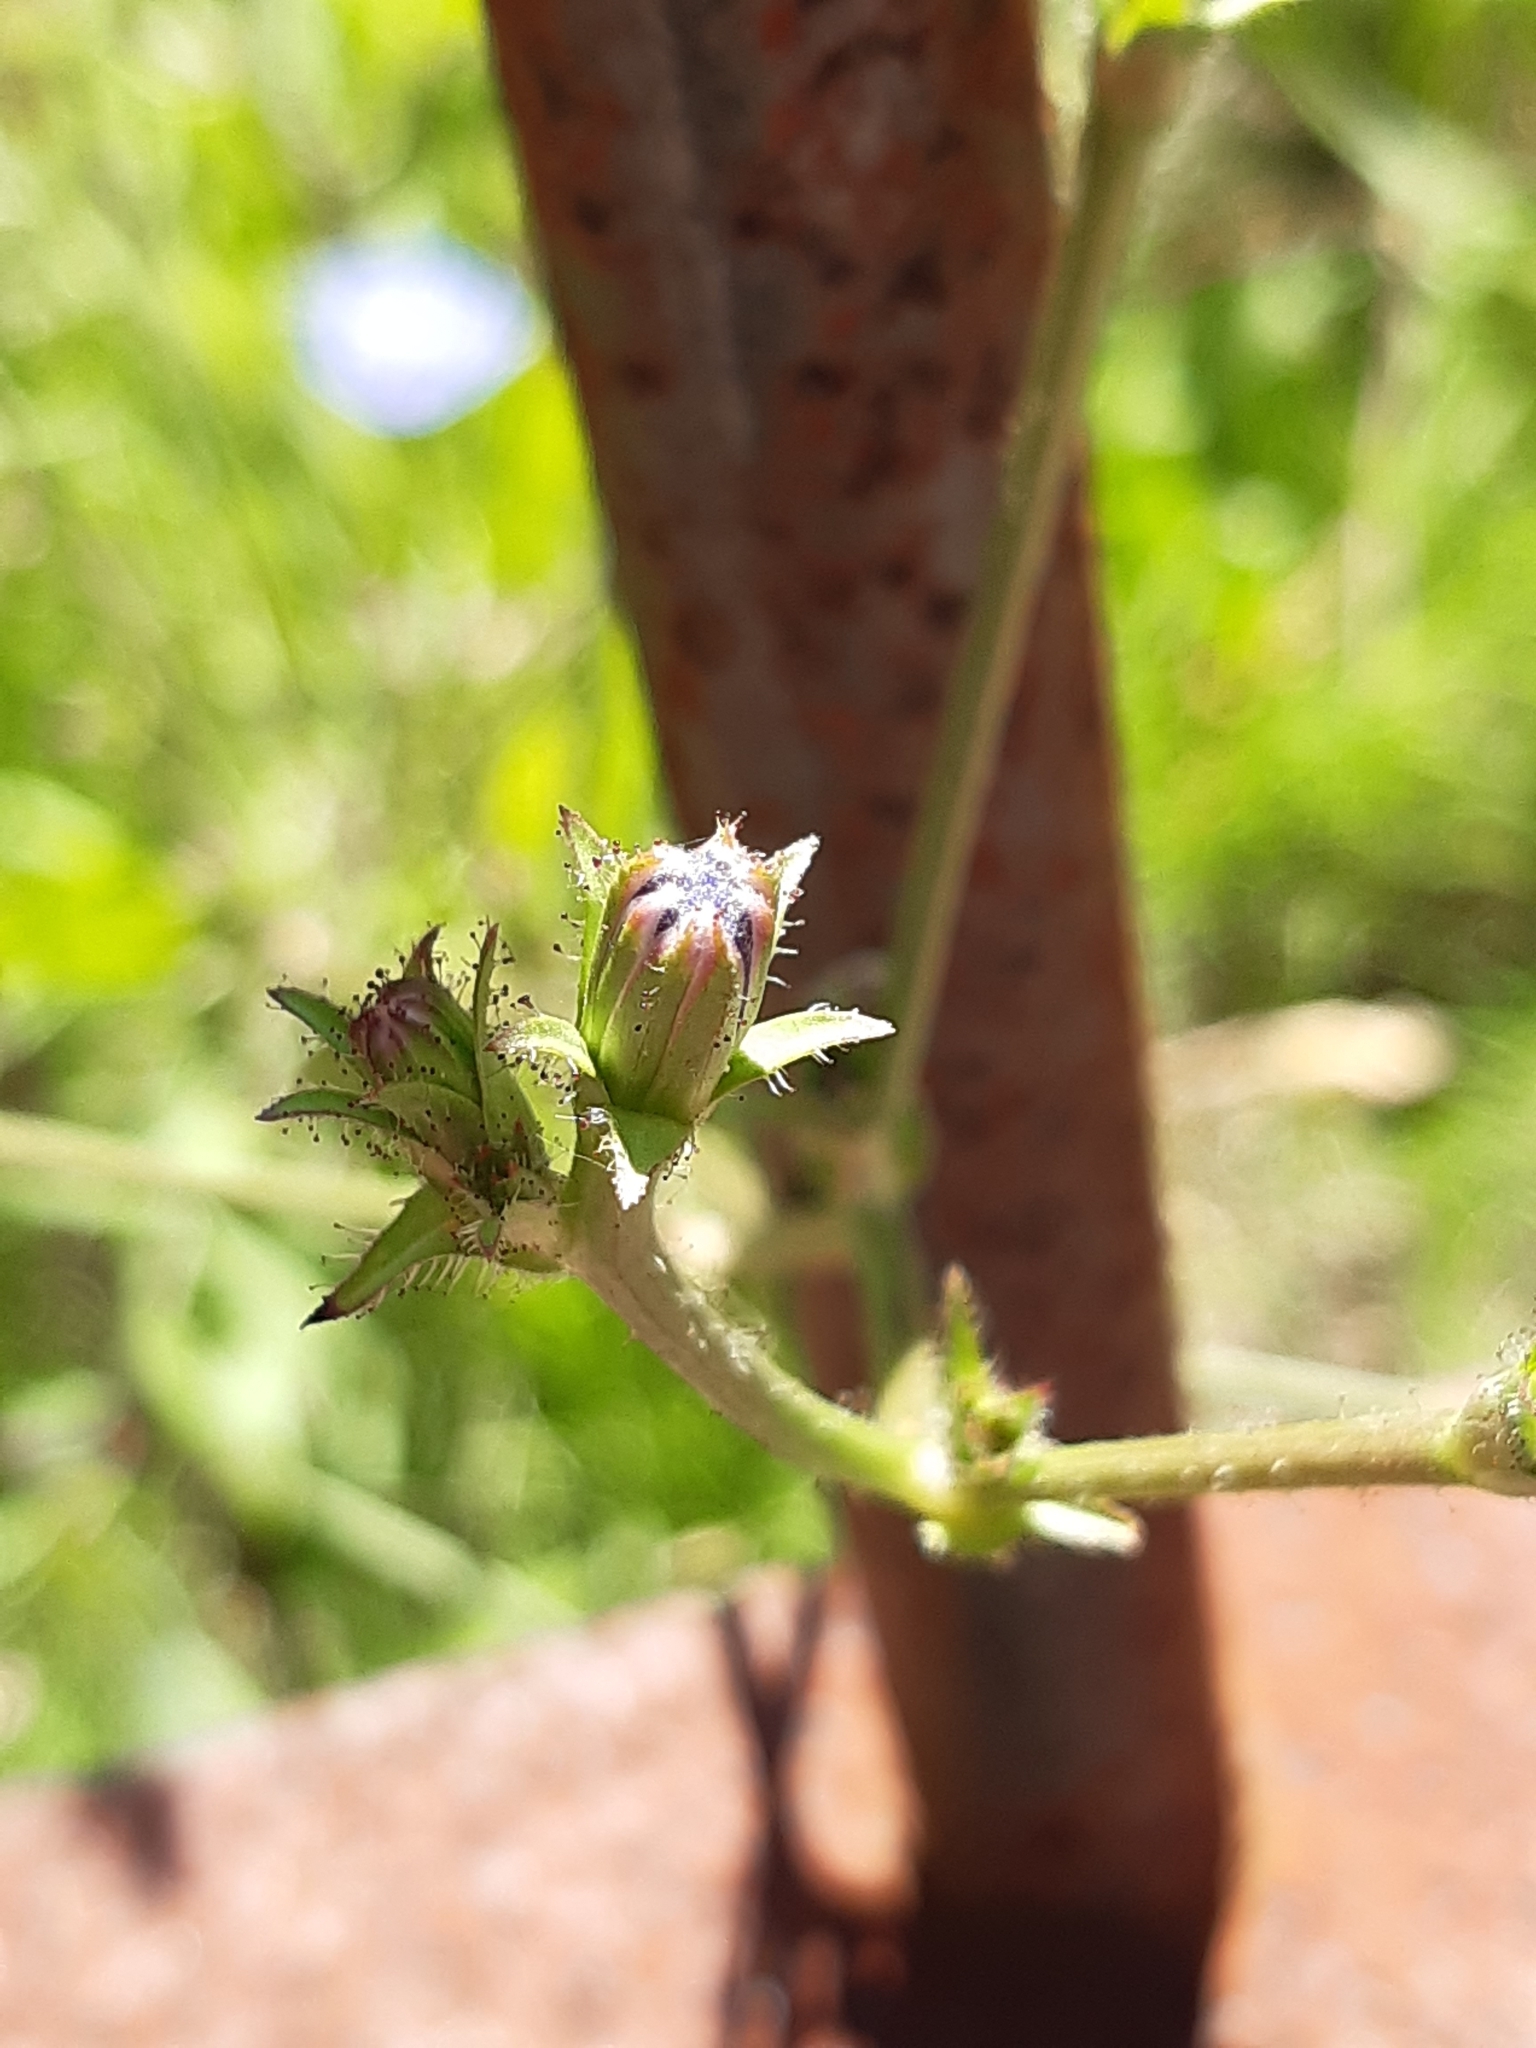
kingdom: Plantae
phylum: Tracheophyta
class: Magnoliopsida
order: Asterales
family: Asteraceae
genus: Cichorium
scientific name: Cichorium intybus
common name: Chicory
